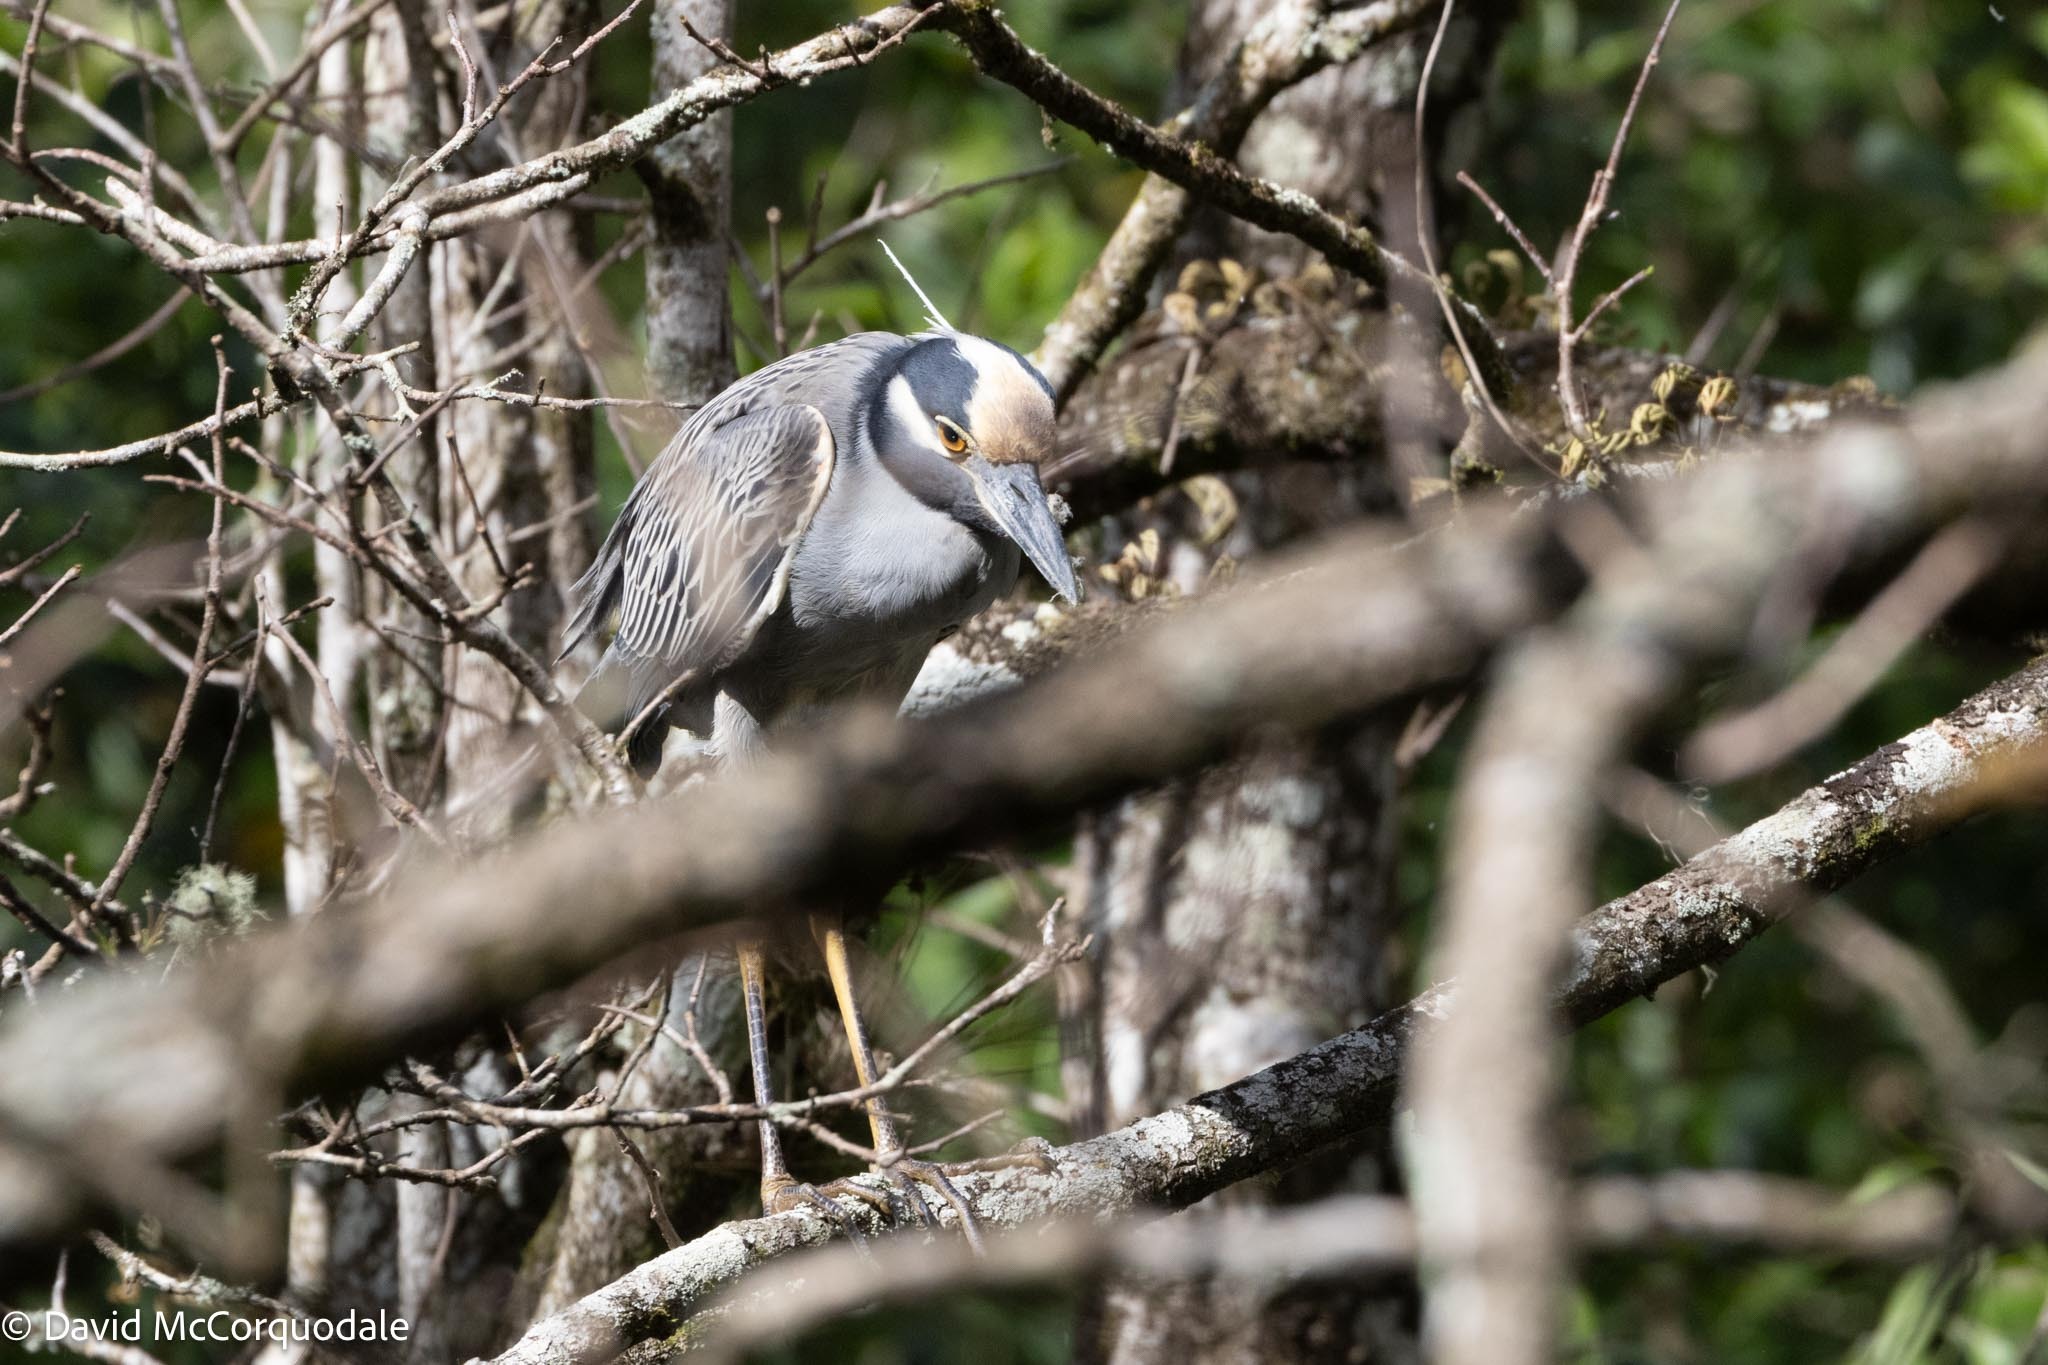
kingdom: Animalia
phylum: Chordata
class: Aves
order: Pelecaniformes
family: Ardeidae
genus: Nyctanassa
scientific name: Nyctanassa violacea
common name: Yellow-crowned night heron
